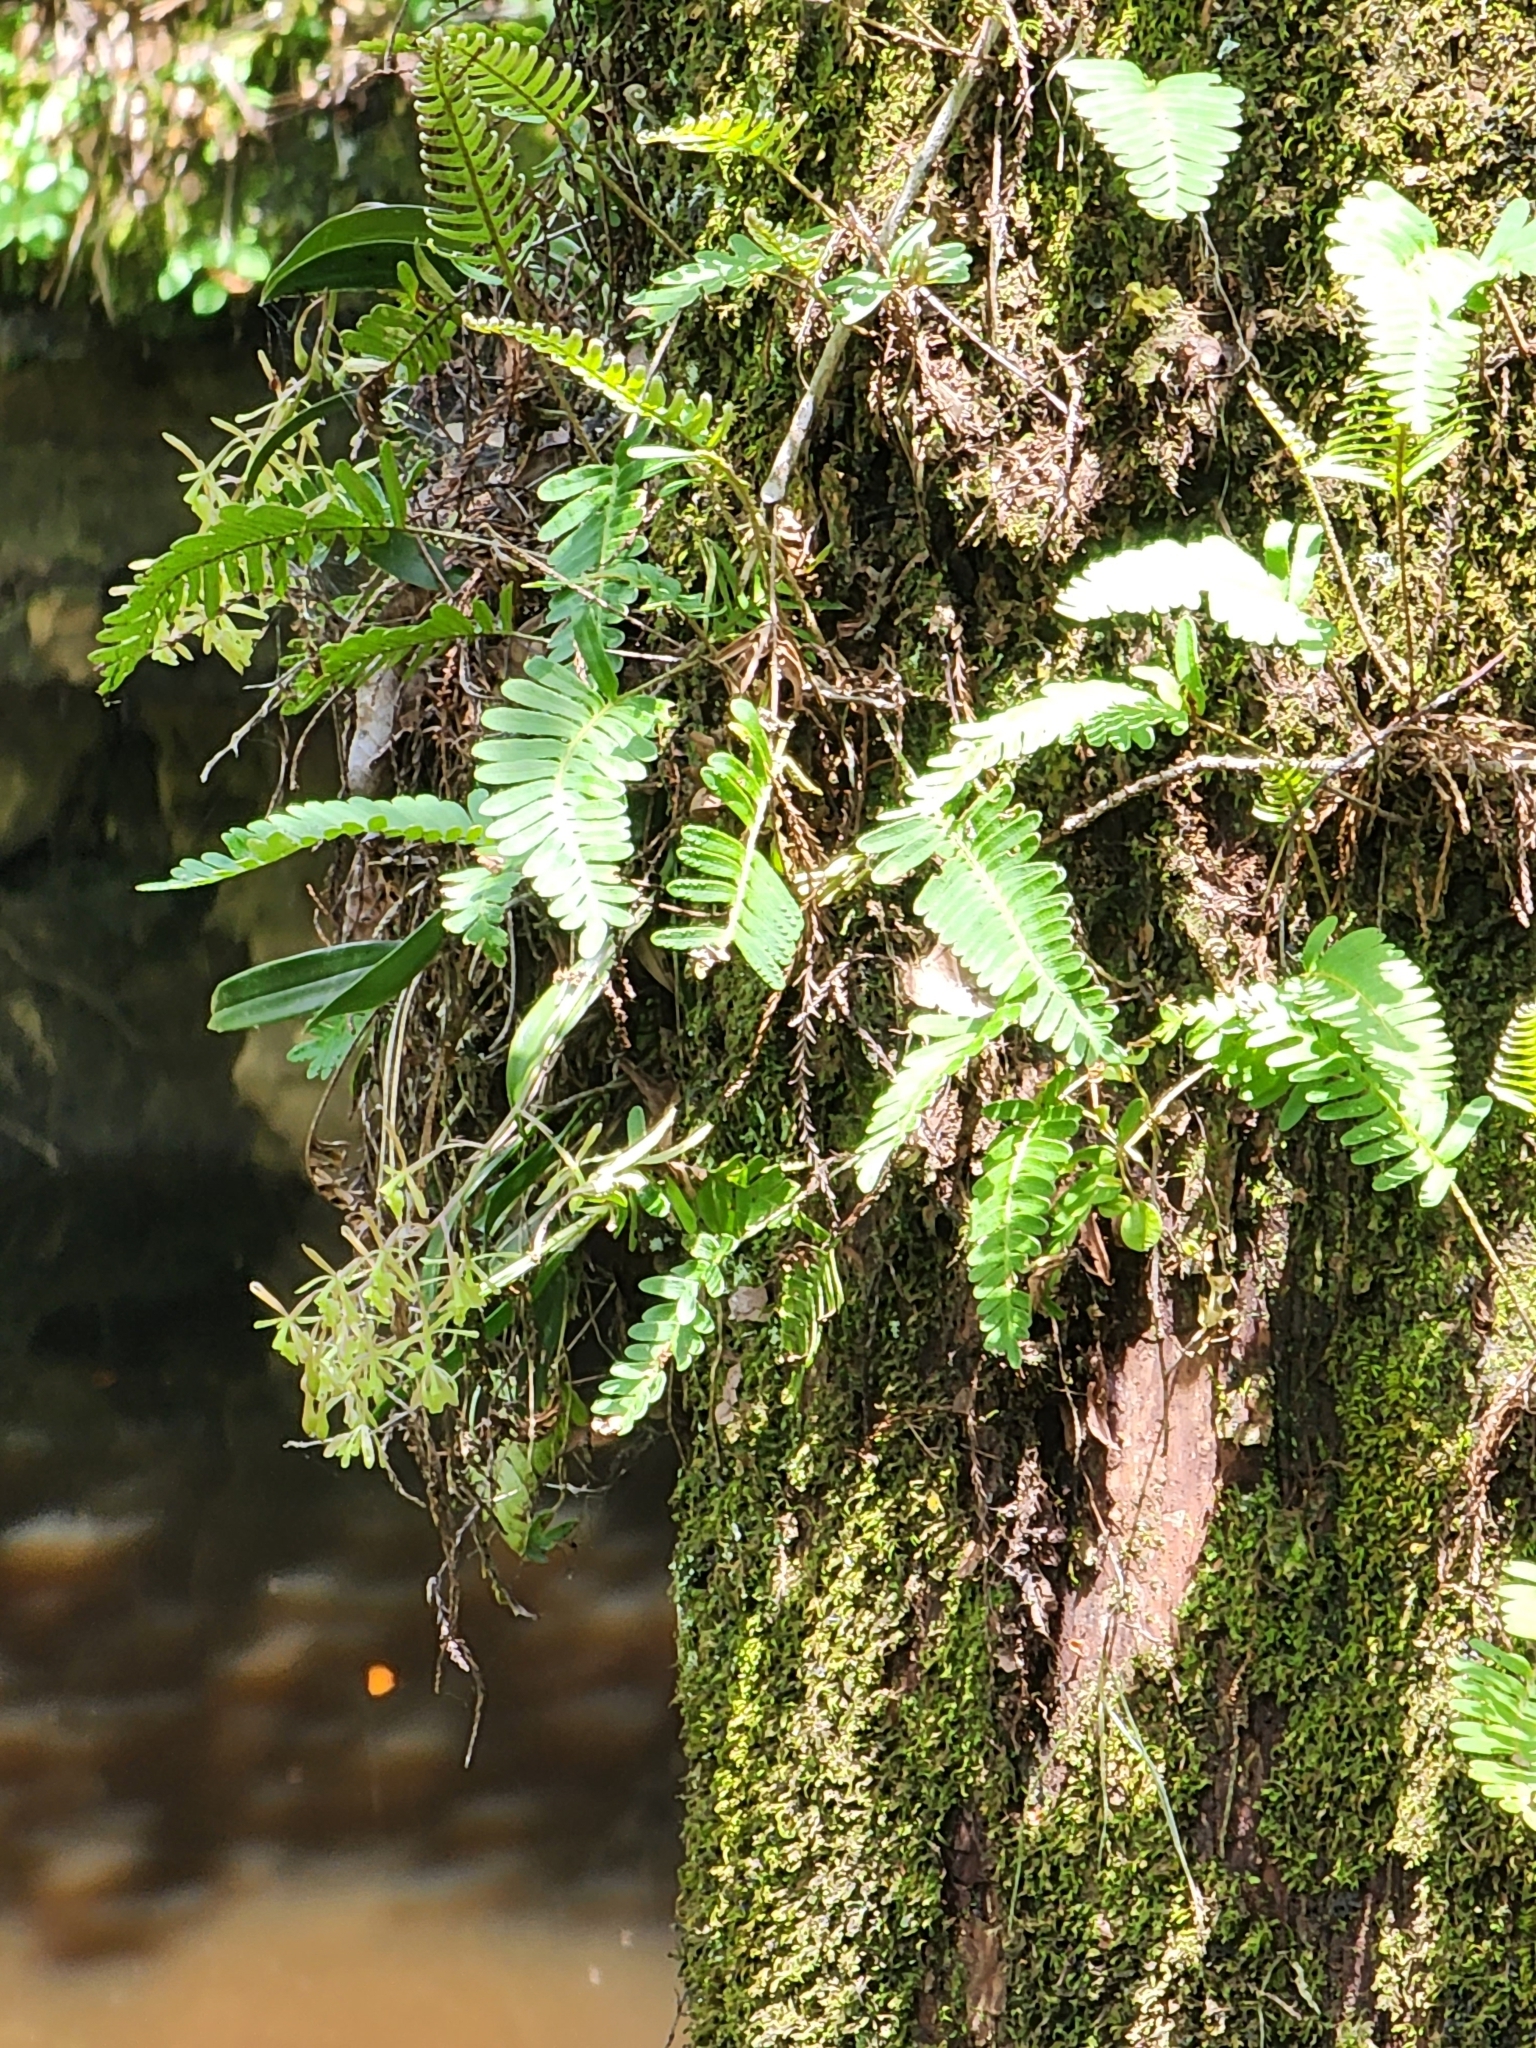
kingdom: Plantae
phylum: Tracheophyta
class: Liliopsida
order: Asparagales
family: Orchidaceae
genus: Epidendrum
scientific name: Epidendrum conopseum
